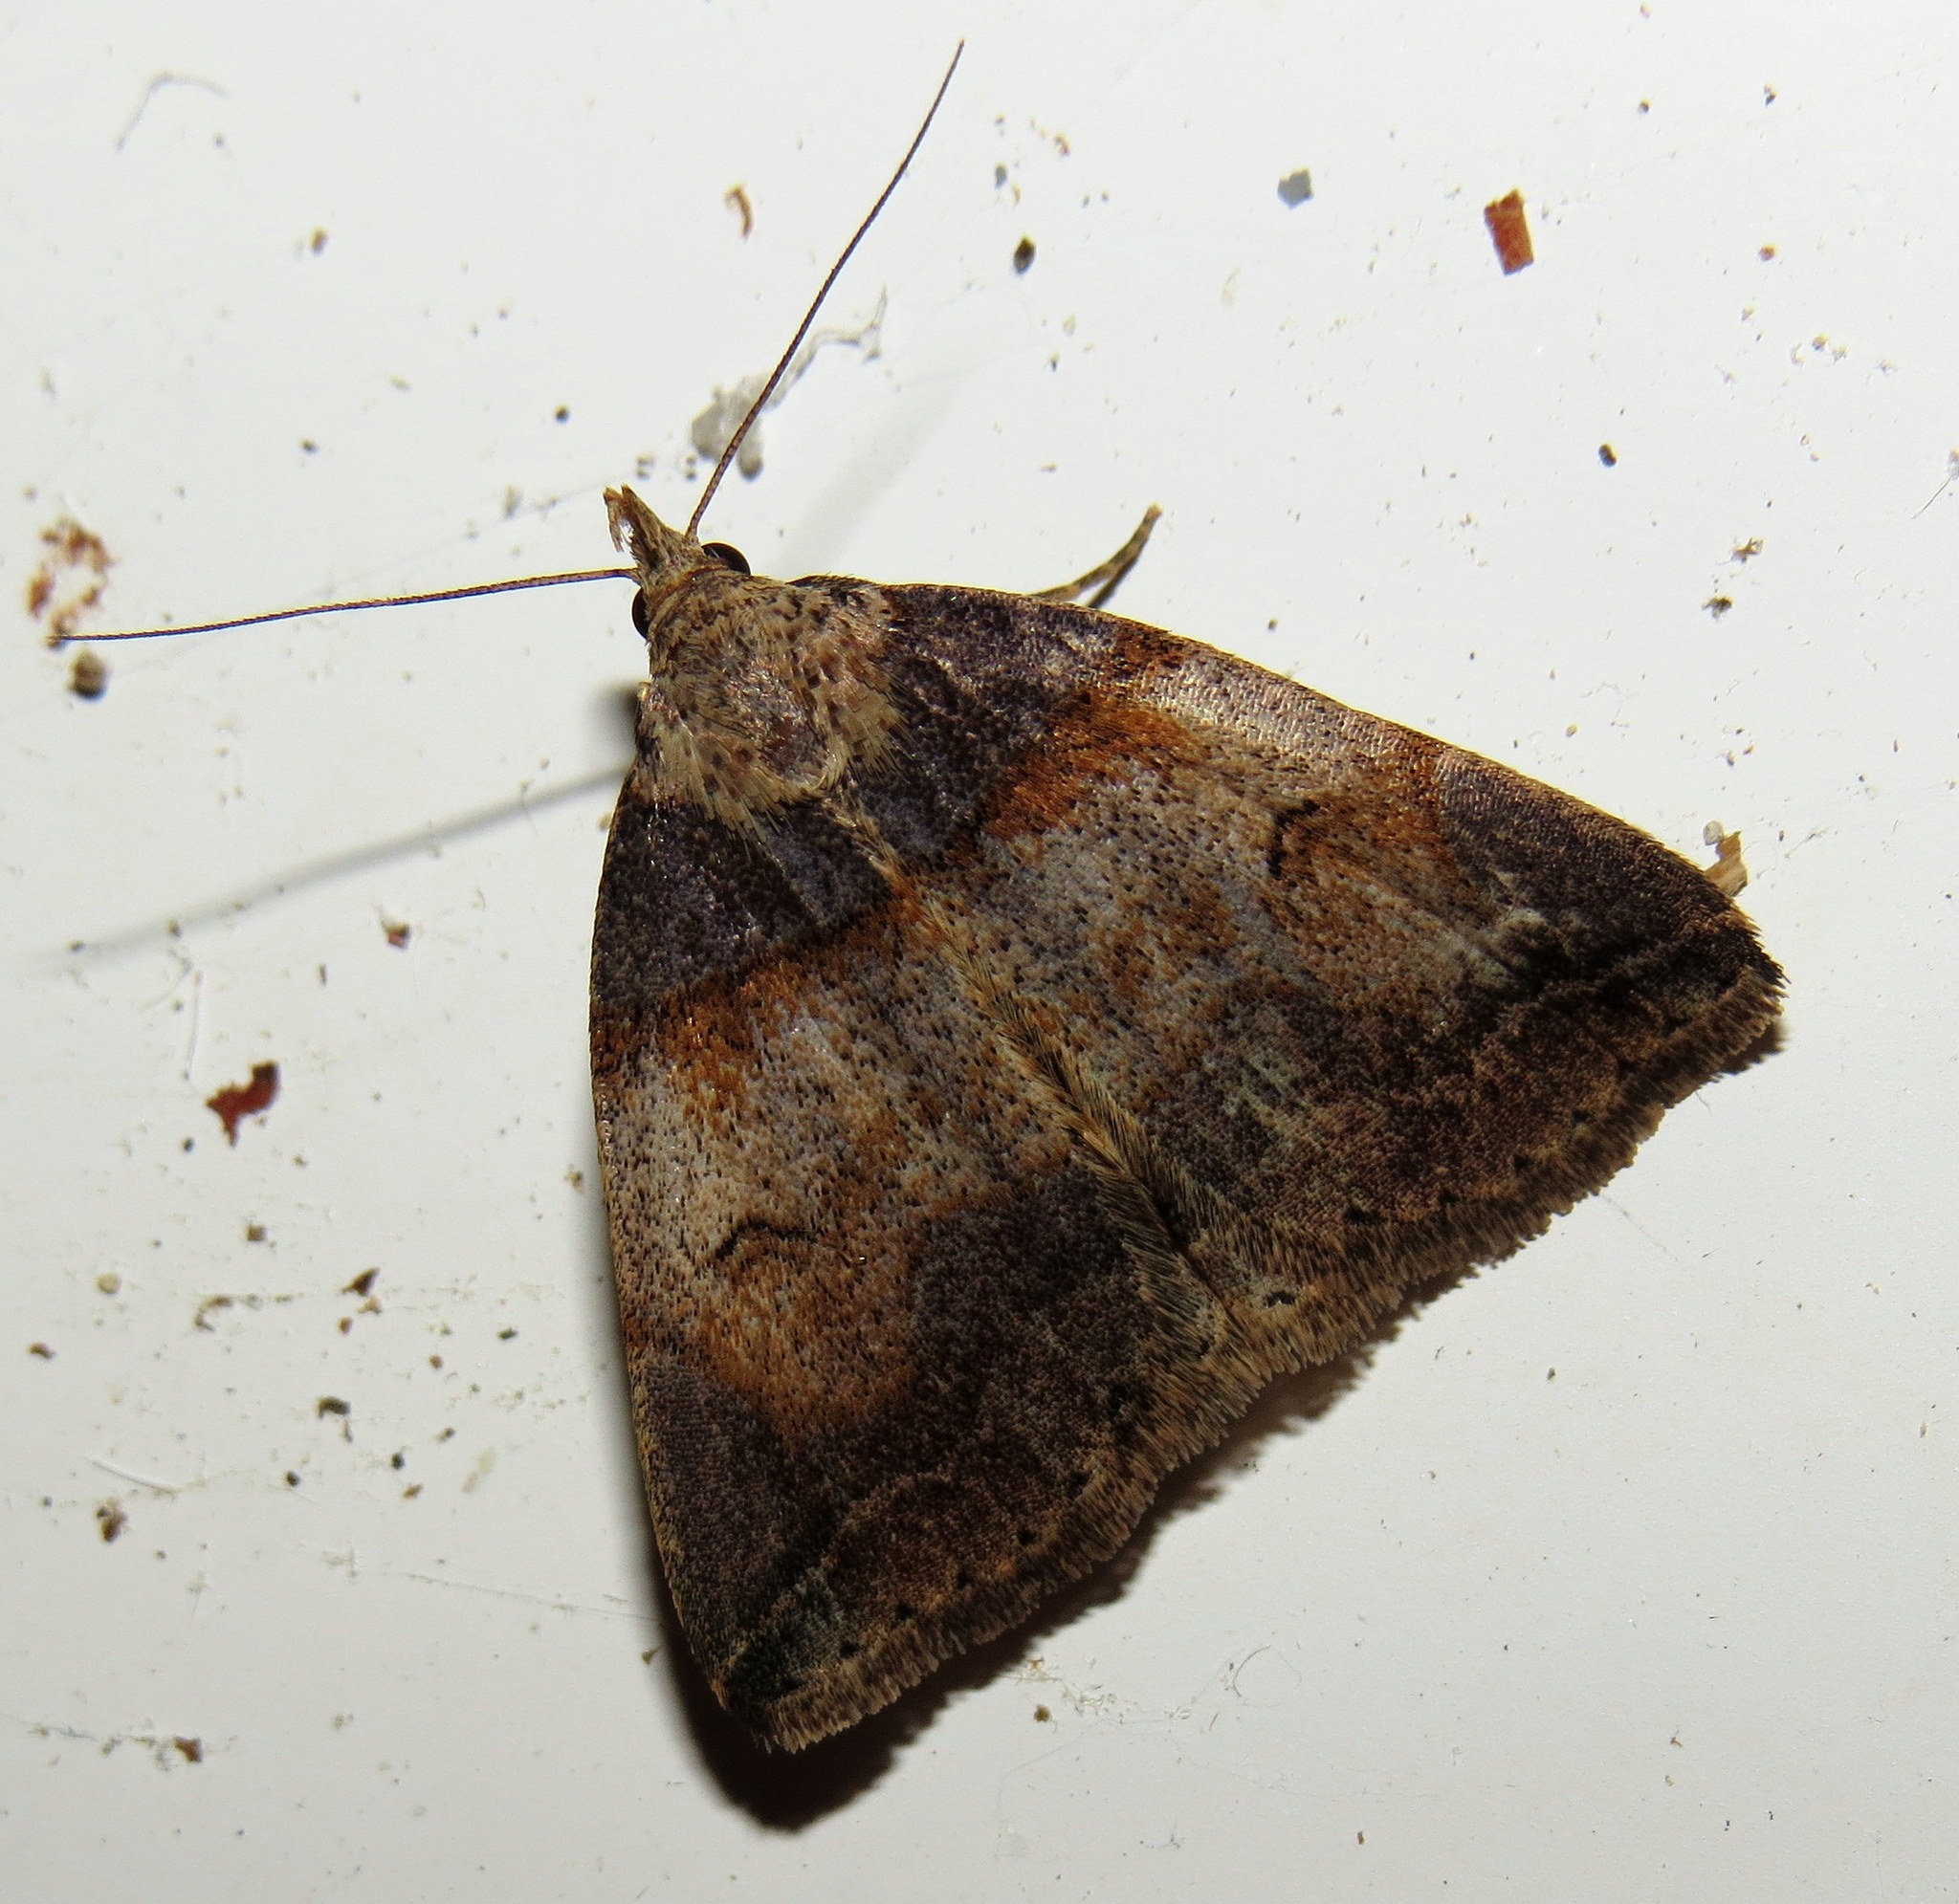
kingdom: Animalia
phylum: Arthropoda
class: Insecta
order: Lepidoptera
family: Erebidae
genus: Zanclognatha
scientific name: Zanclognatha laevigata
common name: Variable fan-foot
